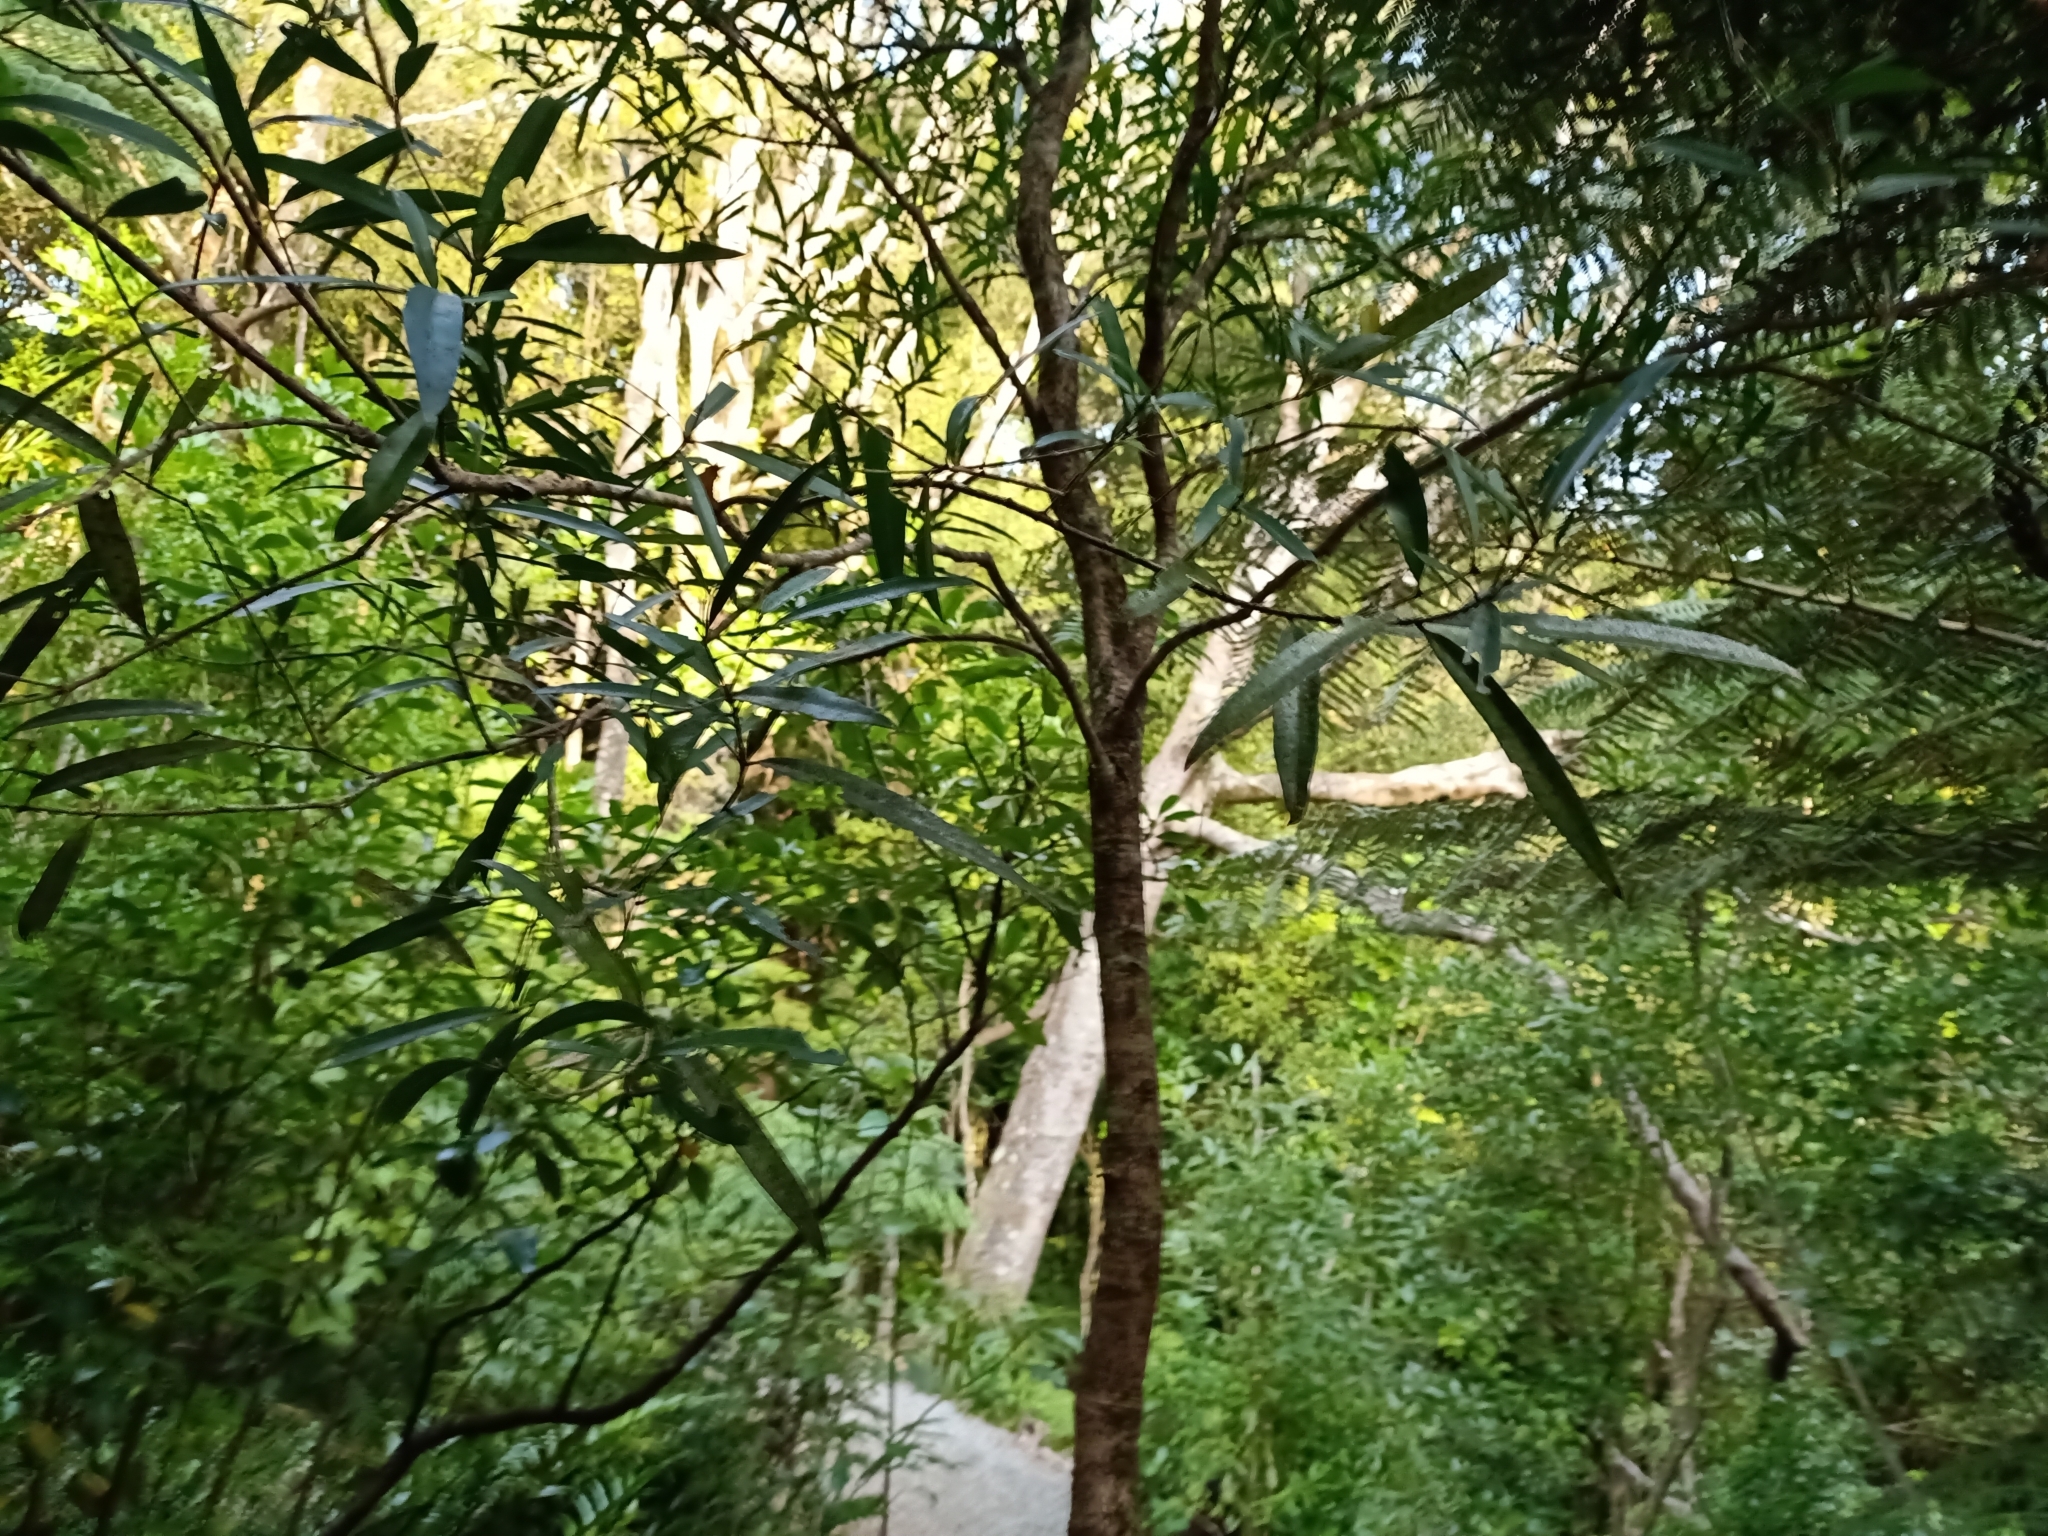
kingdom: Plantae
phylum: Tracheophyta
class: Magnoliopsida
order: Lamiales
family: Oleaceae
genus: Nestegis
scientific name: Nestegis lanceolata
